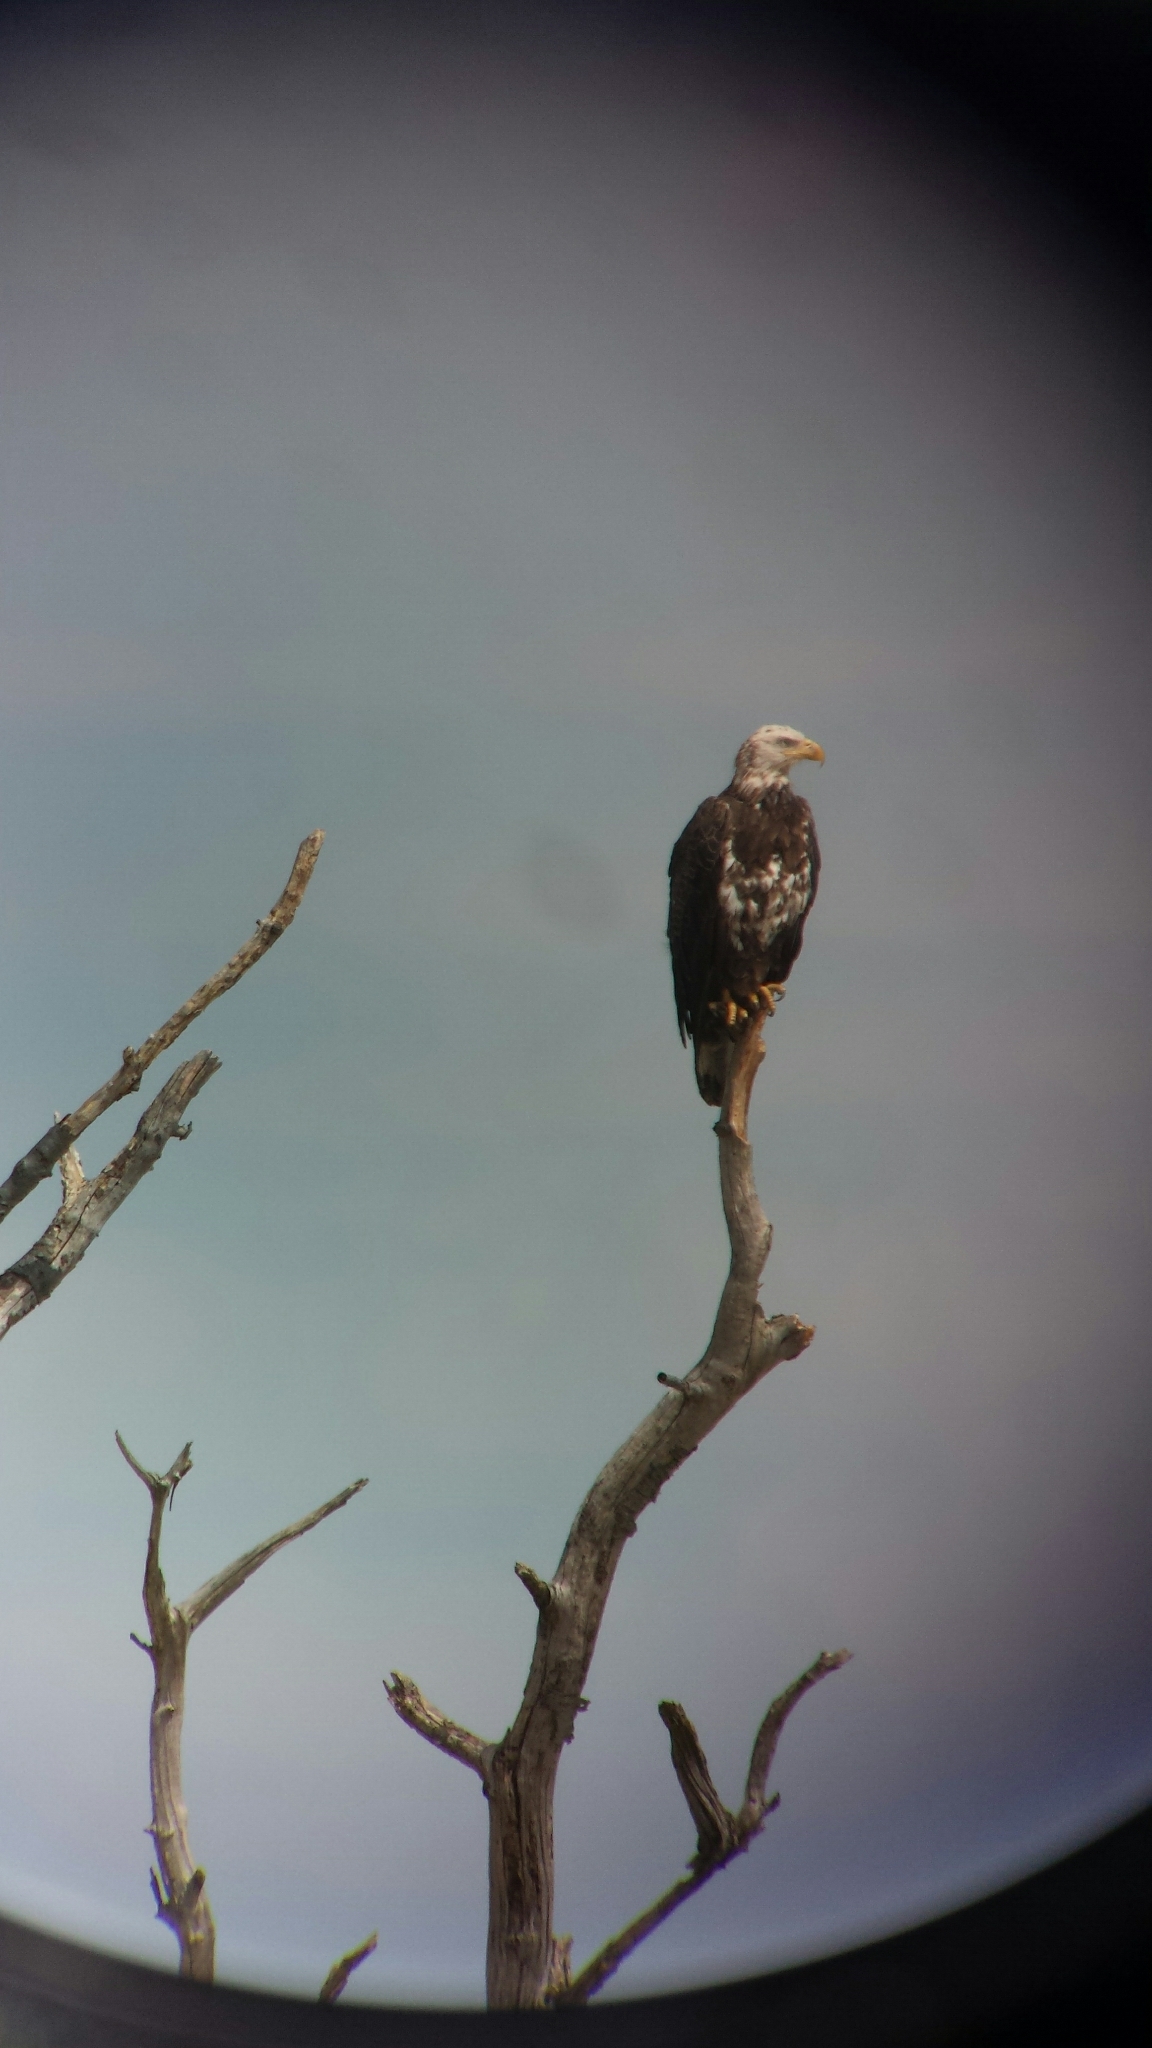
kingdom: Animalia
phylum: Chordata
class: Aves
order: Accipitriformes
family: Accipitridae
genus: Haliaeetus
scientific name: Haliaeetus leucocephalus
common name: Bald eagle
